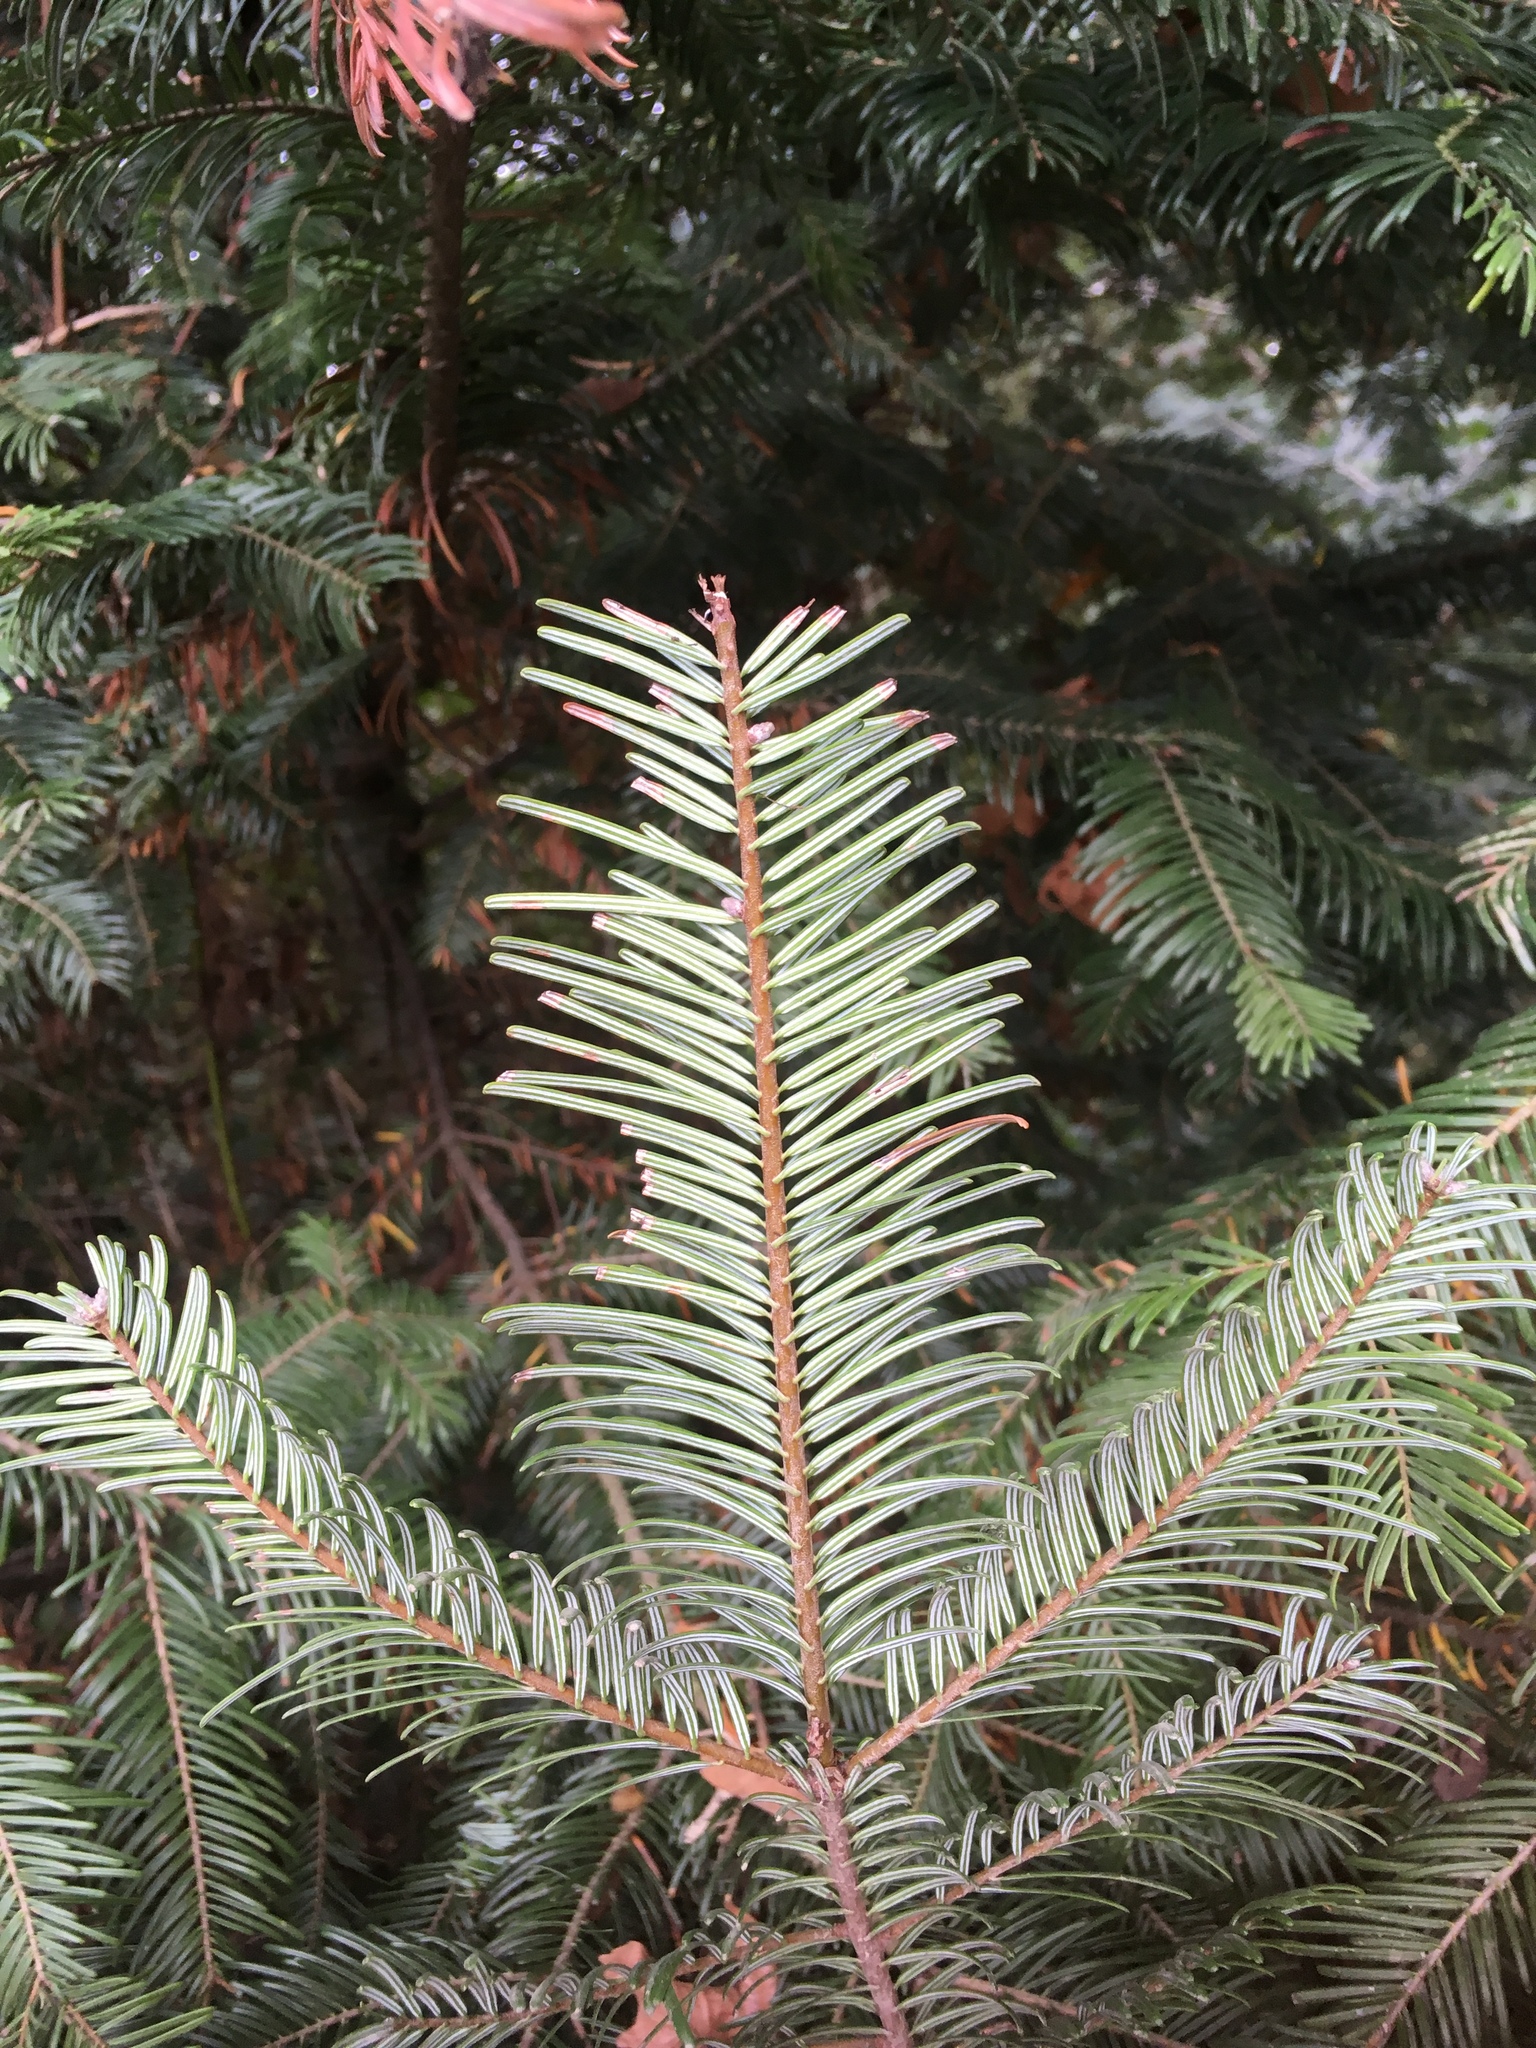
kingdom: Plantae
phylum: Tracheophyta
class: Pinopsida
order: Pinales
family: Pinaceae
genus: Abies
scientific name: Abies grandis
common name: Giant fir
